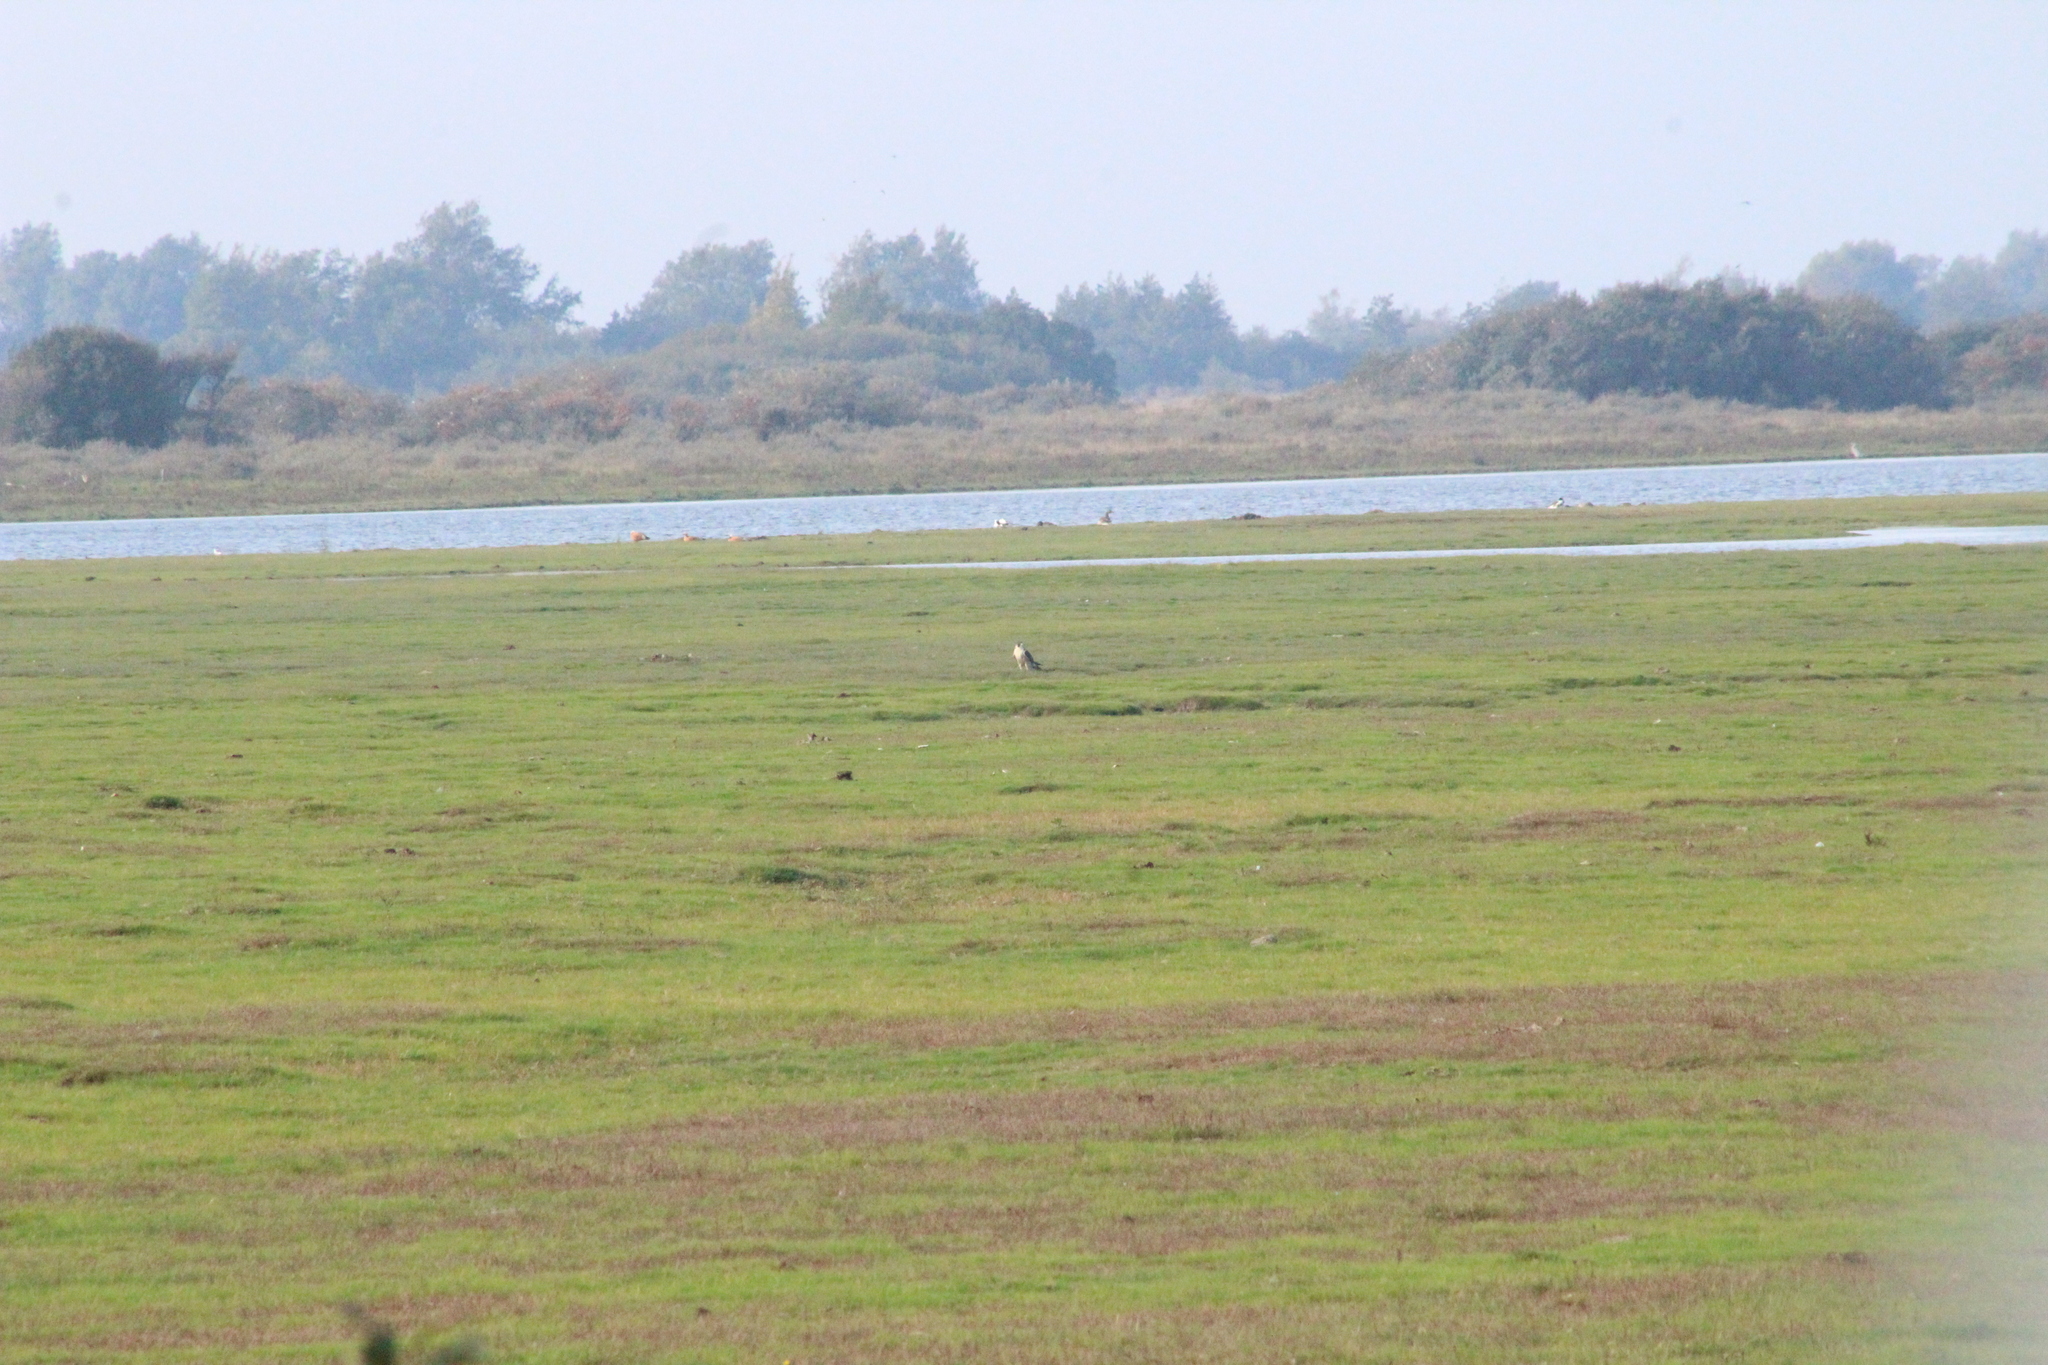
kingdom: Animalia
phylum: Chordata
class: Aves
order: Falconiformes
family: Falconidae
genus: Falco
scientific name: Falco peregrinus
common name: Peregrine falcon
